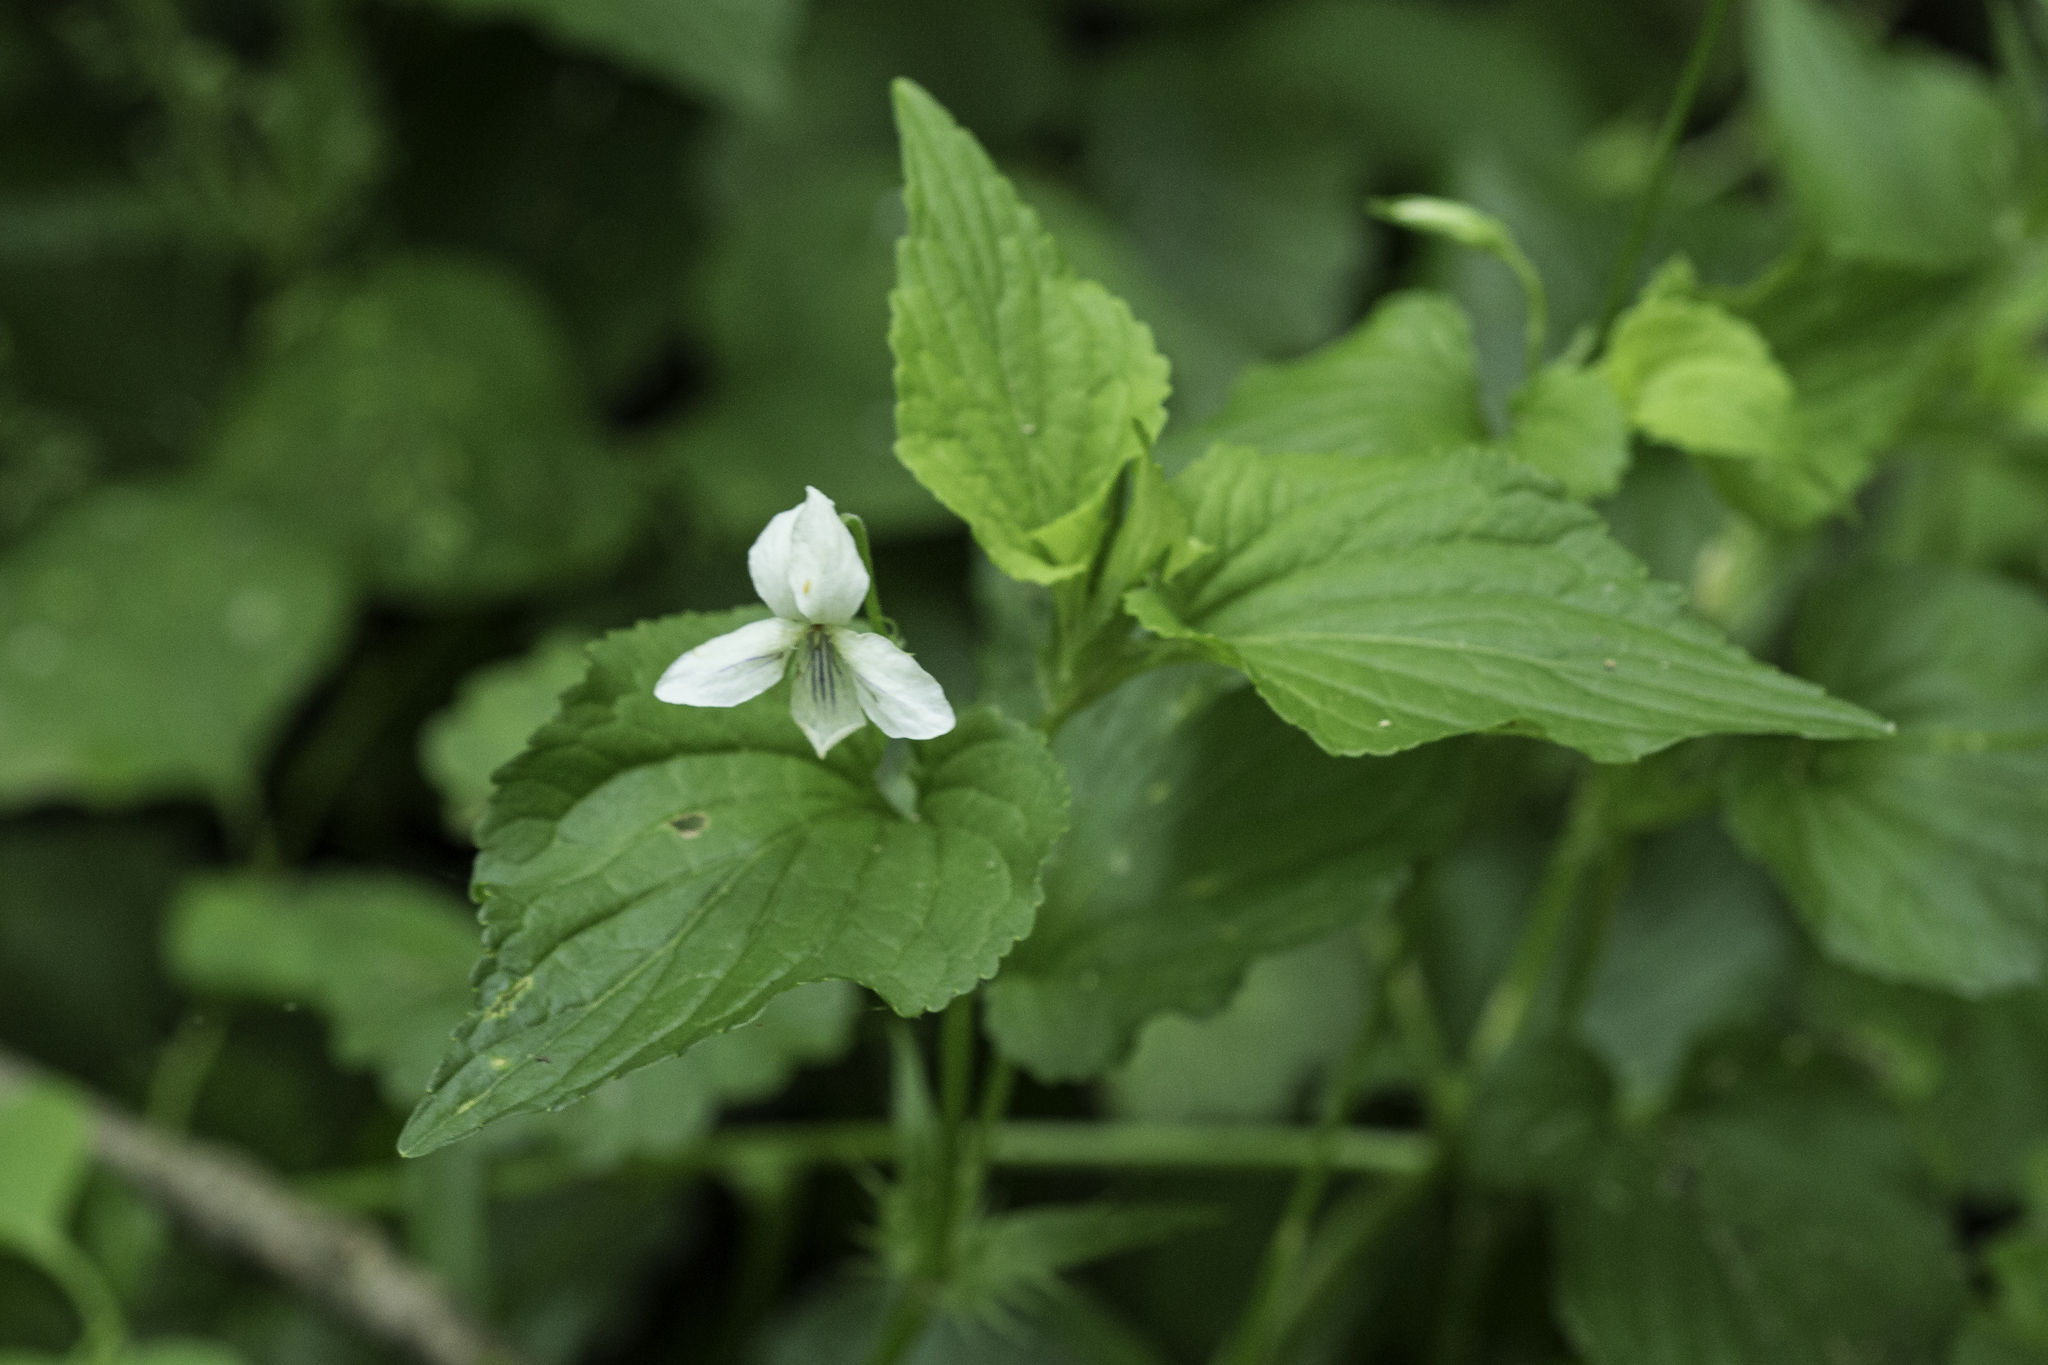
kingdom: Plantae
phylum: Tracheophyta
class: Magnoliopsida
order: Malpighiales
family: Violaceae
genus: Viola
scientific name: Viola striata
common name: Cream violet
